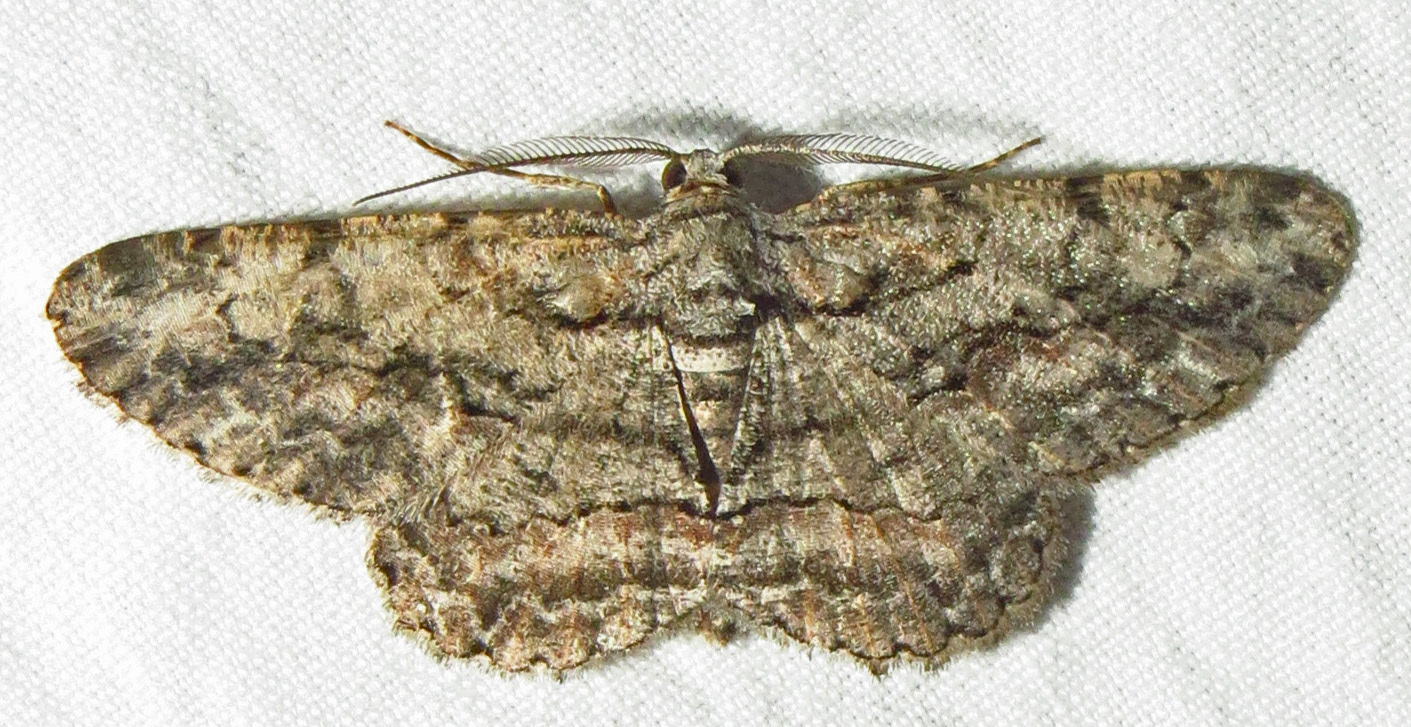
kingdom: Animalia
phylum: Arthropoda
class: Insecta
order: Lepidoptera
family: Geometridae
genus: Anavitrinella
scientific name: Anavitrinella pampinaria
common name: Common gray
